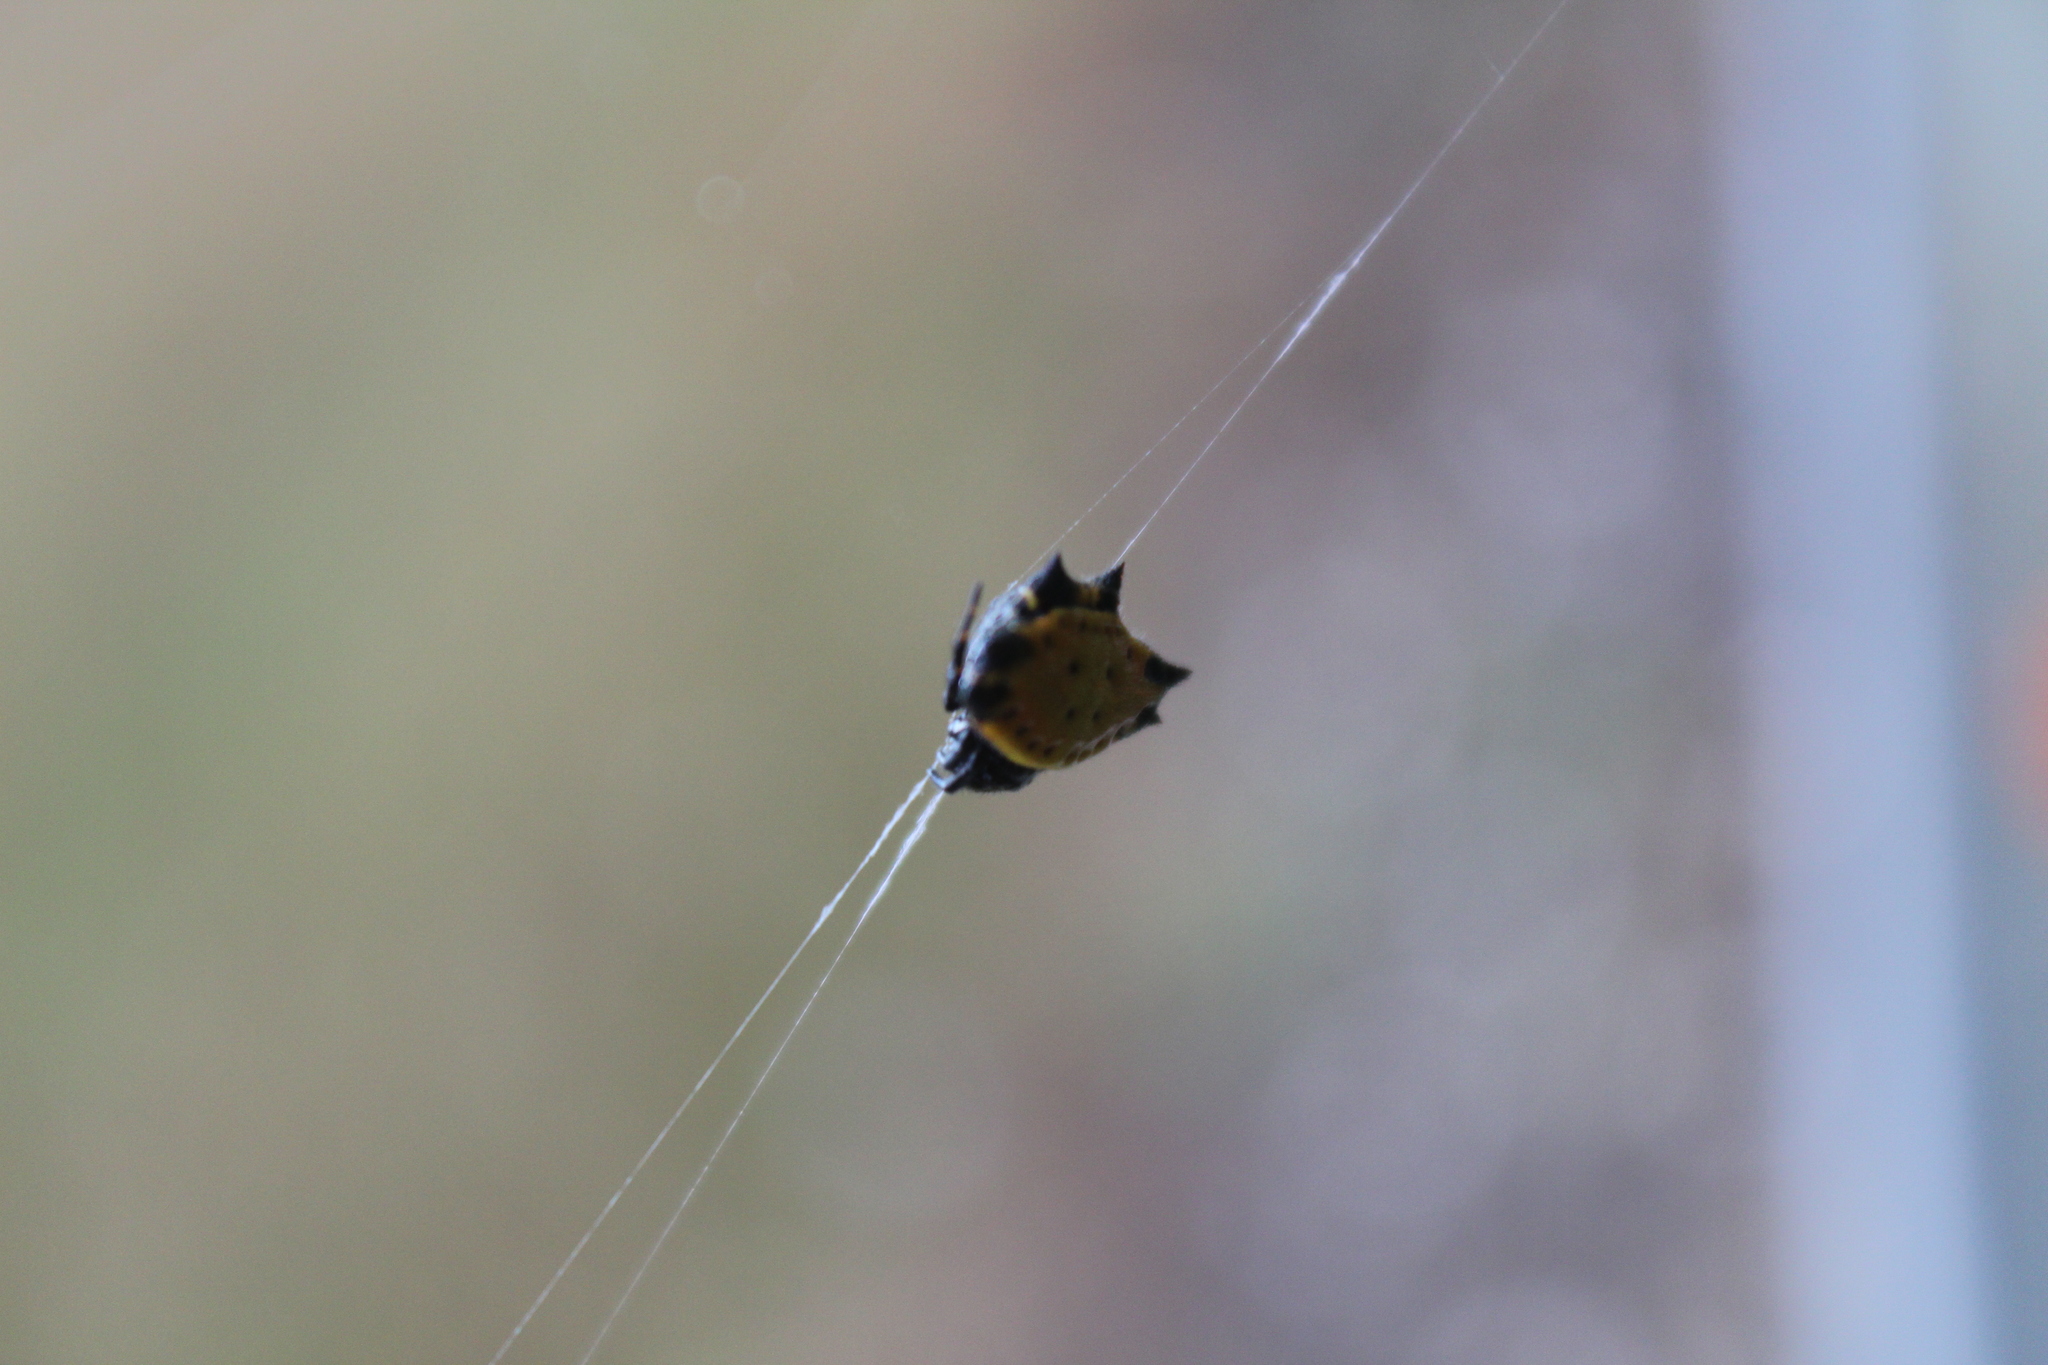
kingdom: Animalia
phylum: Arthropoda
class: Arachnida
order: Araneae
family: Araneidae
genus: Gasteracantha
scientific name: Gasteracantha cancriformis
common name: Orb weavers
